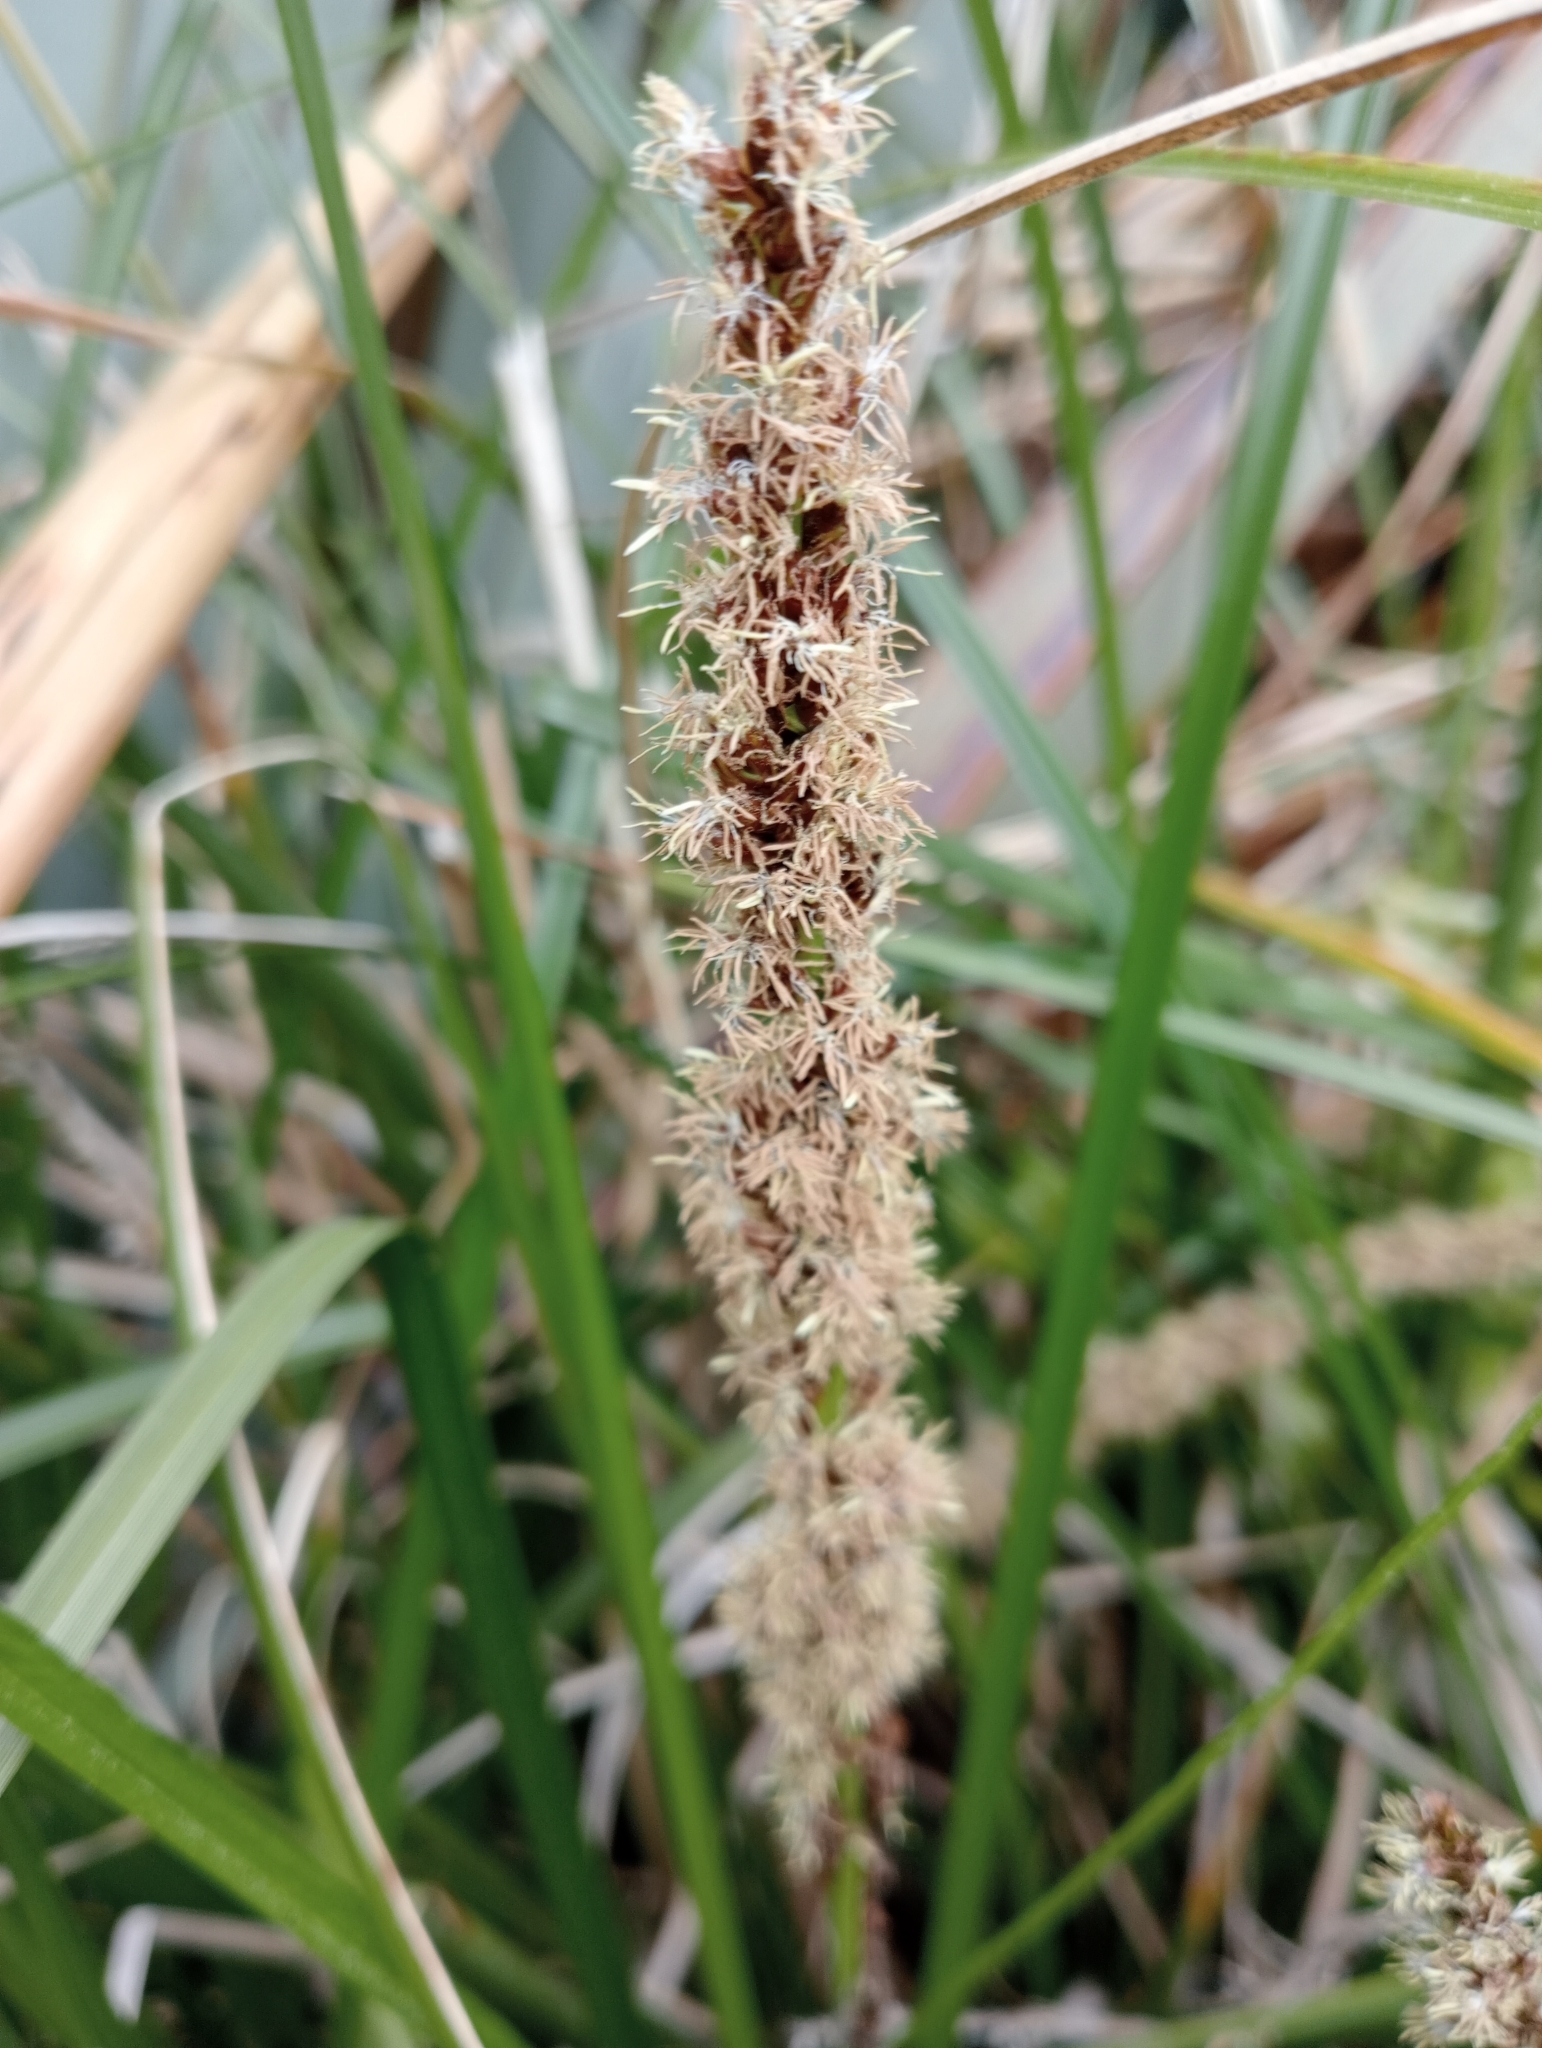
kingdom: Plantae
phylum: Tracheophyta
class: Liliopsida
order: Poales
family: Cyperaceae
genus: Carex
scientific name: Carex appressa
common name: Tussock sedge
